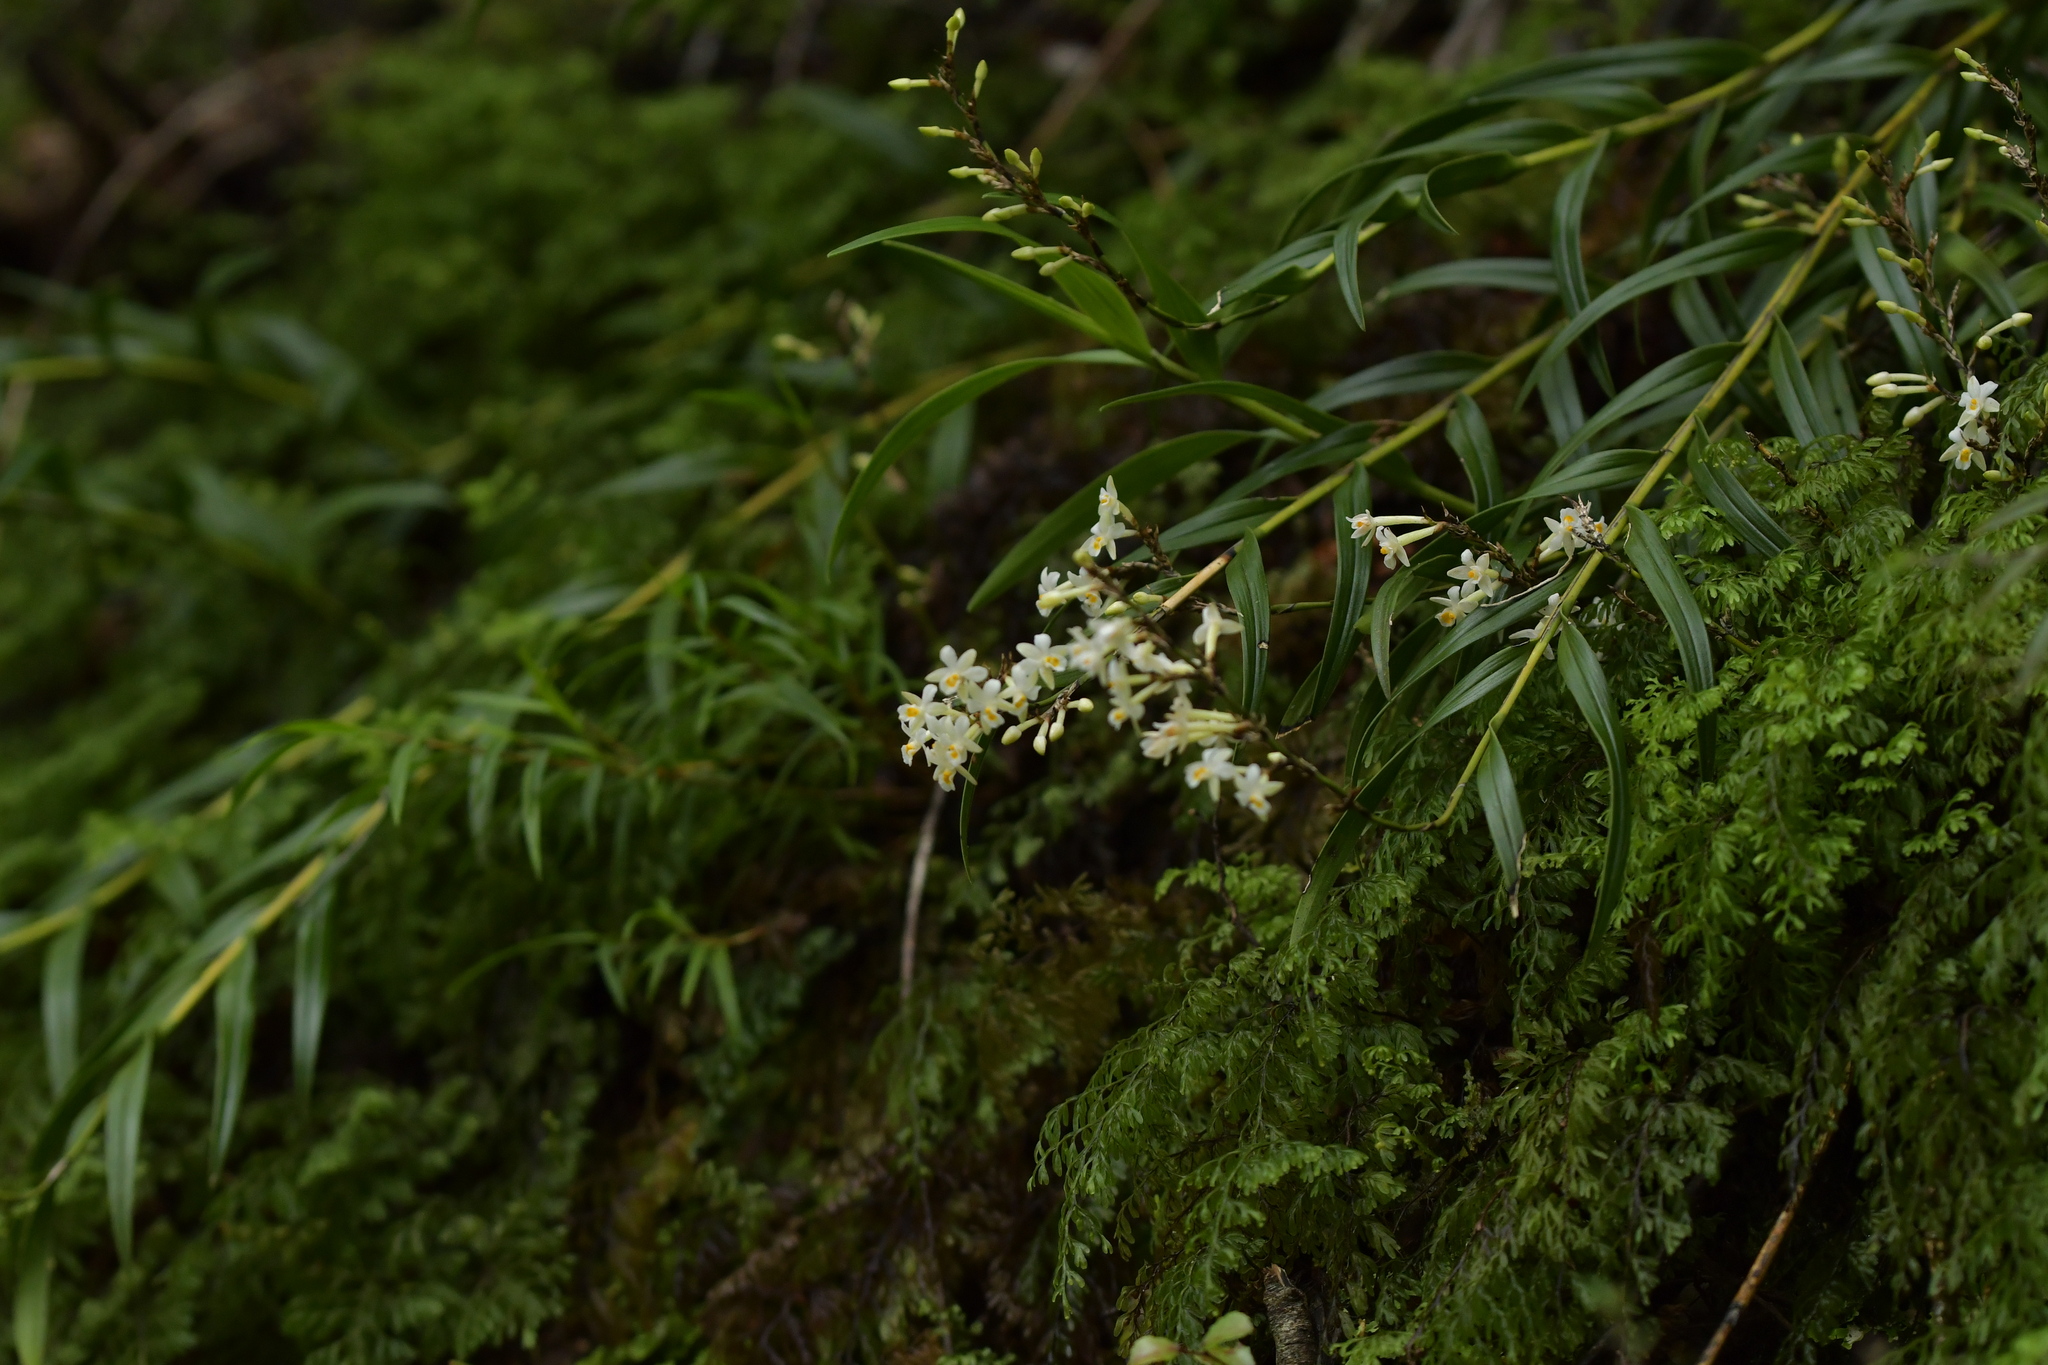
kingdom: Plantae
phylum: Tracheophyta
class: Liliopsida
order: Asparagales
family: Orchidaceae
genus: Earina
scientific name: Earina autumnalis
